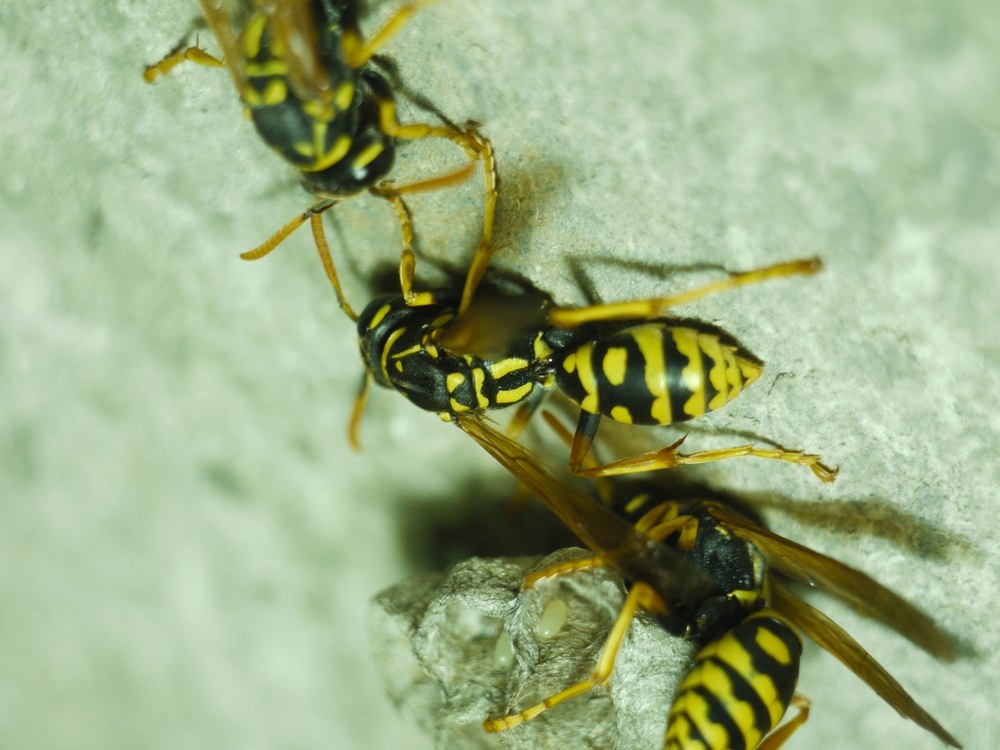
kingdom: Animalia
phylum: Arthropoda
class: Insecta
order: Hymenoptera
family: Eumenidae
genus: Polistes
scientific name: Polistes dominula
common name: Paper wasp
